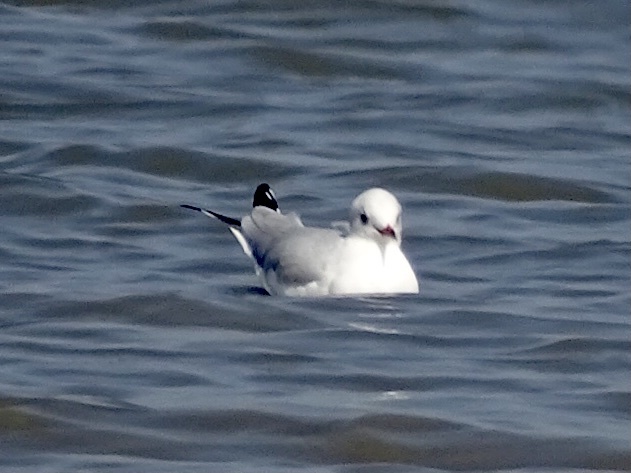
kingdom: Animalia
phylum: Chordata
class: Aves
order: Charadriiformes
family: Laridae
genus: Chroicocephalus
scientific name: Chroicocephalus ridibundus
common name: Black-headed gull
